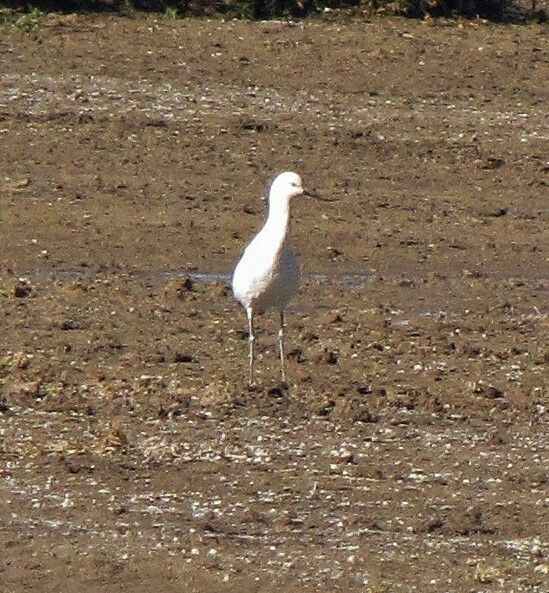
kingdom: Animalia
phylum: Chordata
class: Aves
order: Charadriiformes
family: Recurvirostridae
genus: Recurvirostra
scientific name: Recurvirostra andina
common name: Andean avocet
